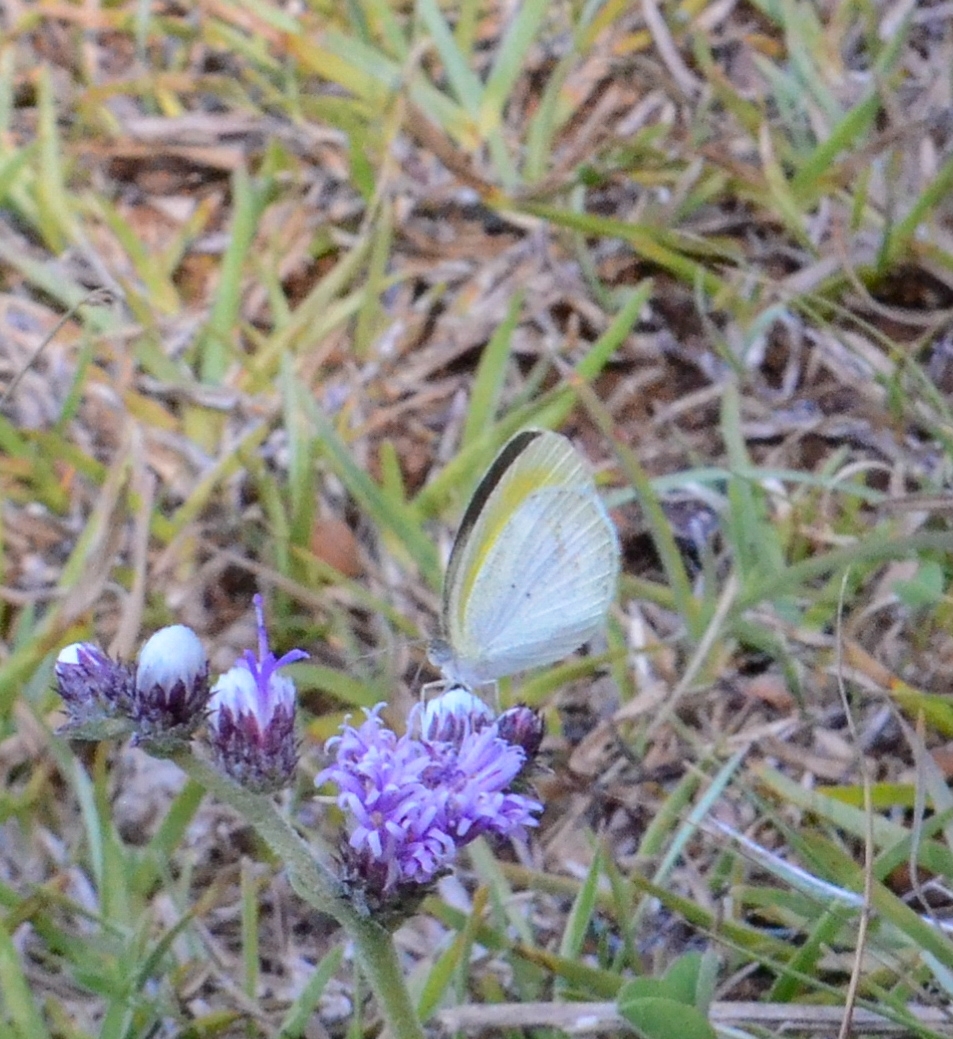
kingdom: Animalia
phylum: Arthropoda
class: Insecta
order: Lepidoptera
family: Pieridae
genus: Eurema
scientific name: Eurema elathea
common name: Banded yellow
